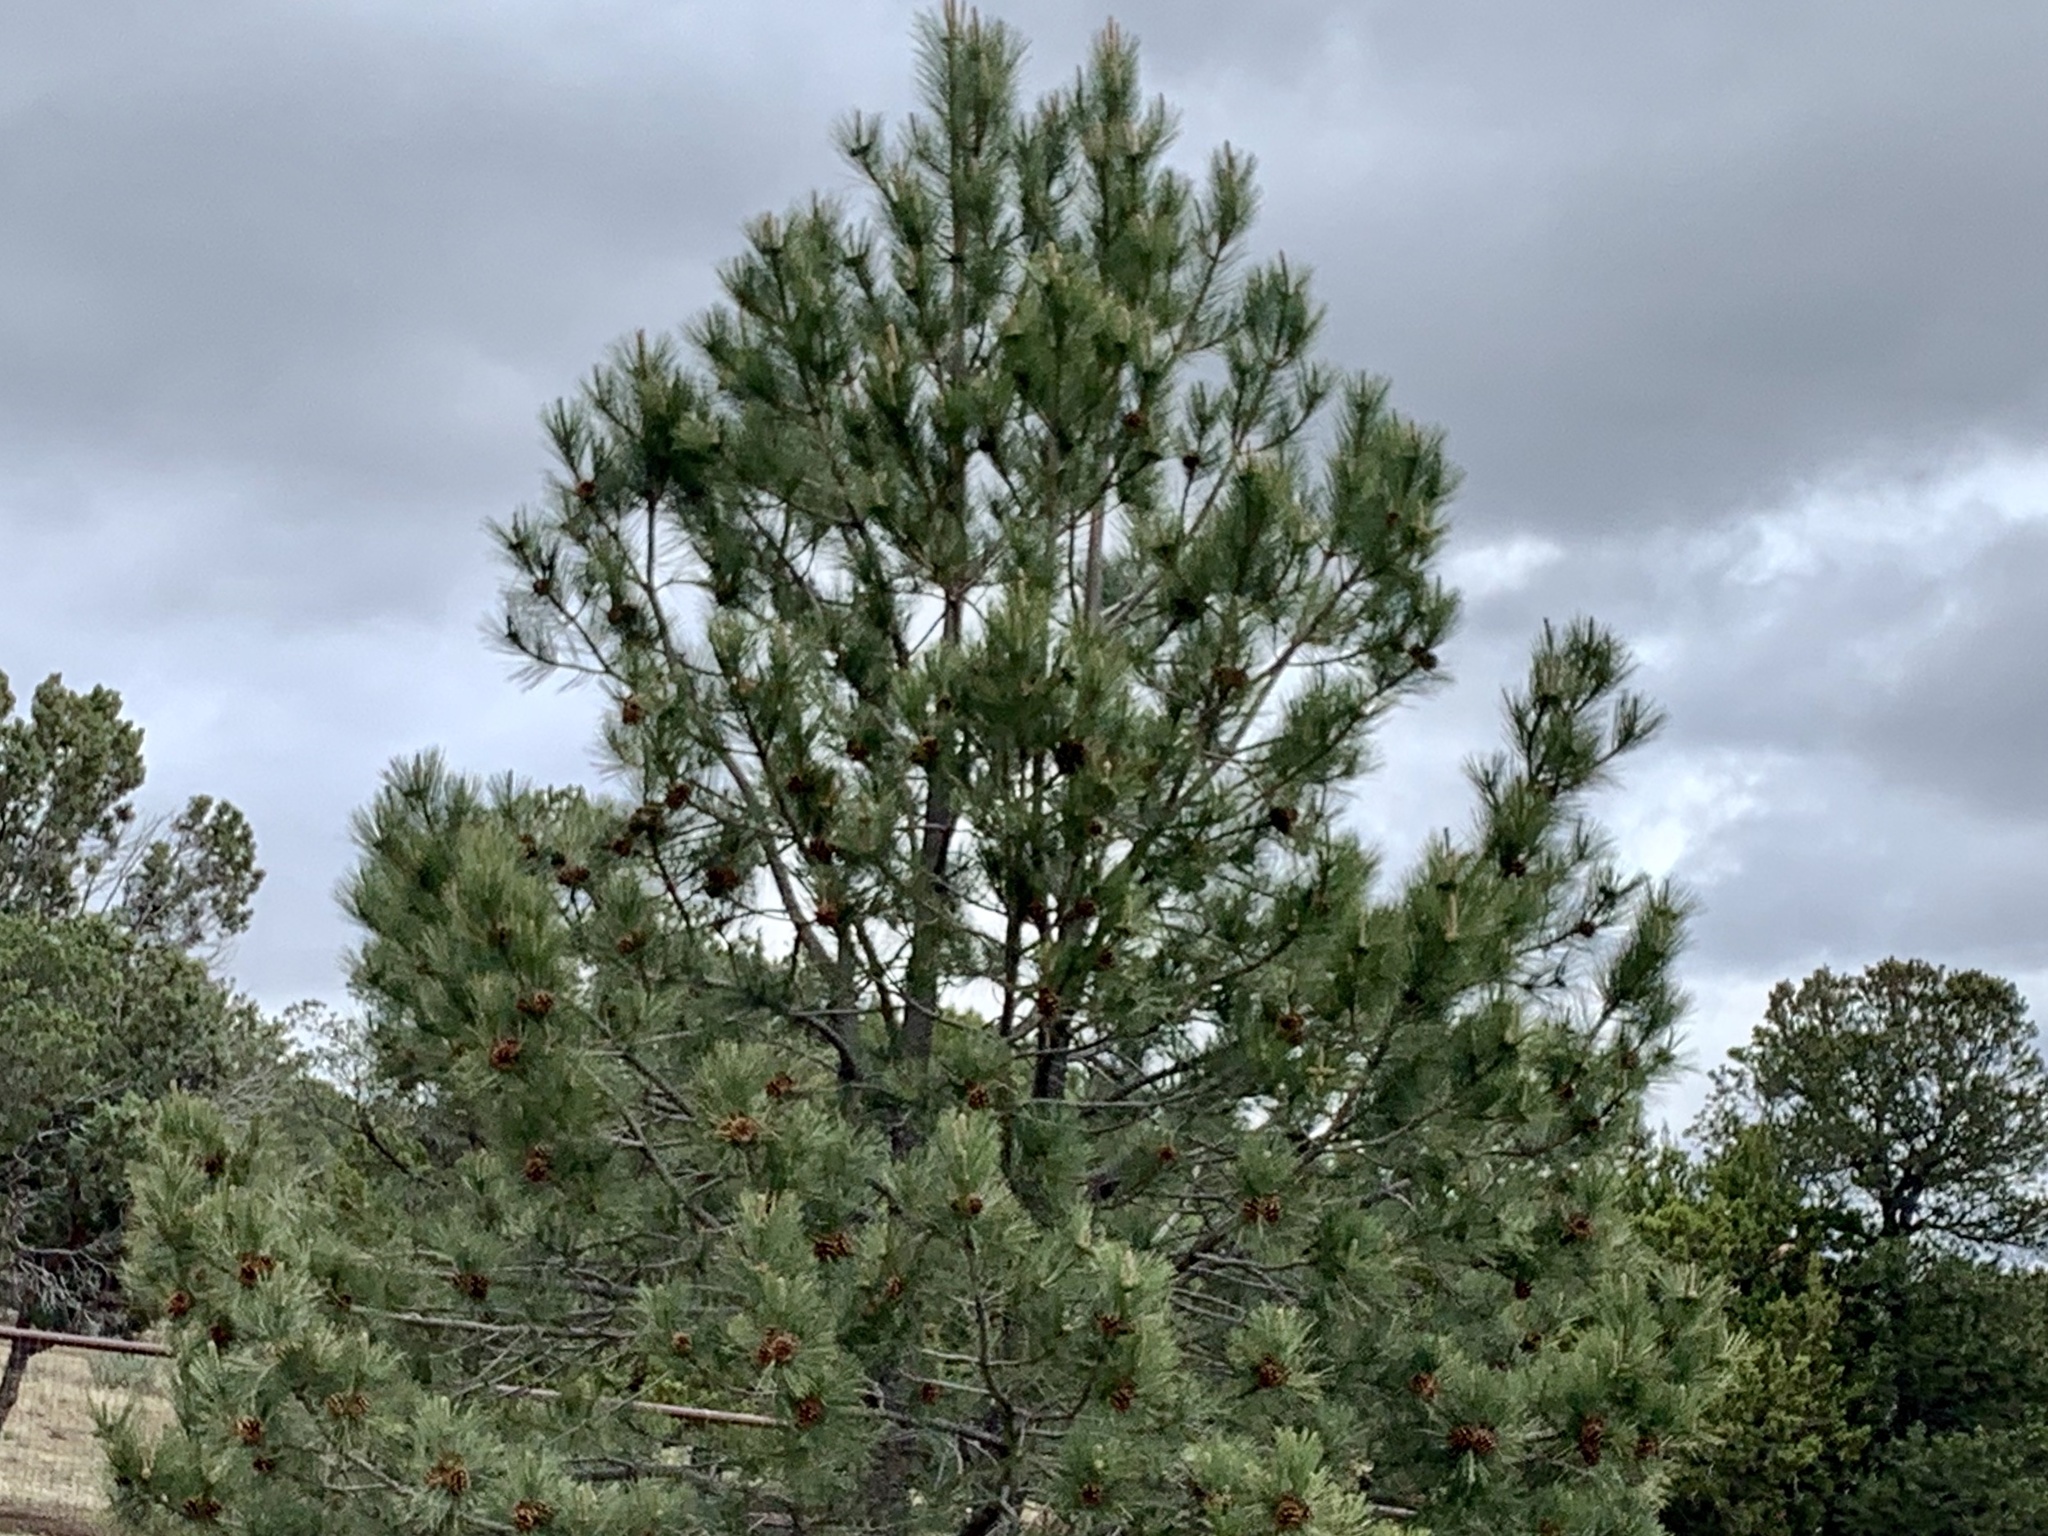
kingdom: Plantae
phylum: Tracheophyta
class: Pinopsida
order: Pinales
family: Pinaceae
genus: Pinus
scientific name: Pinus ponderosa
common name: Western yellow-pine
